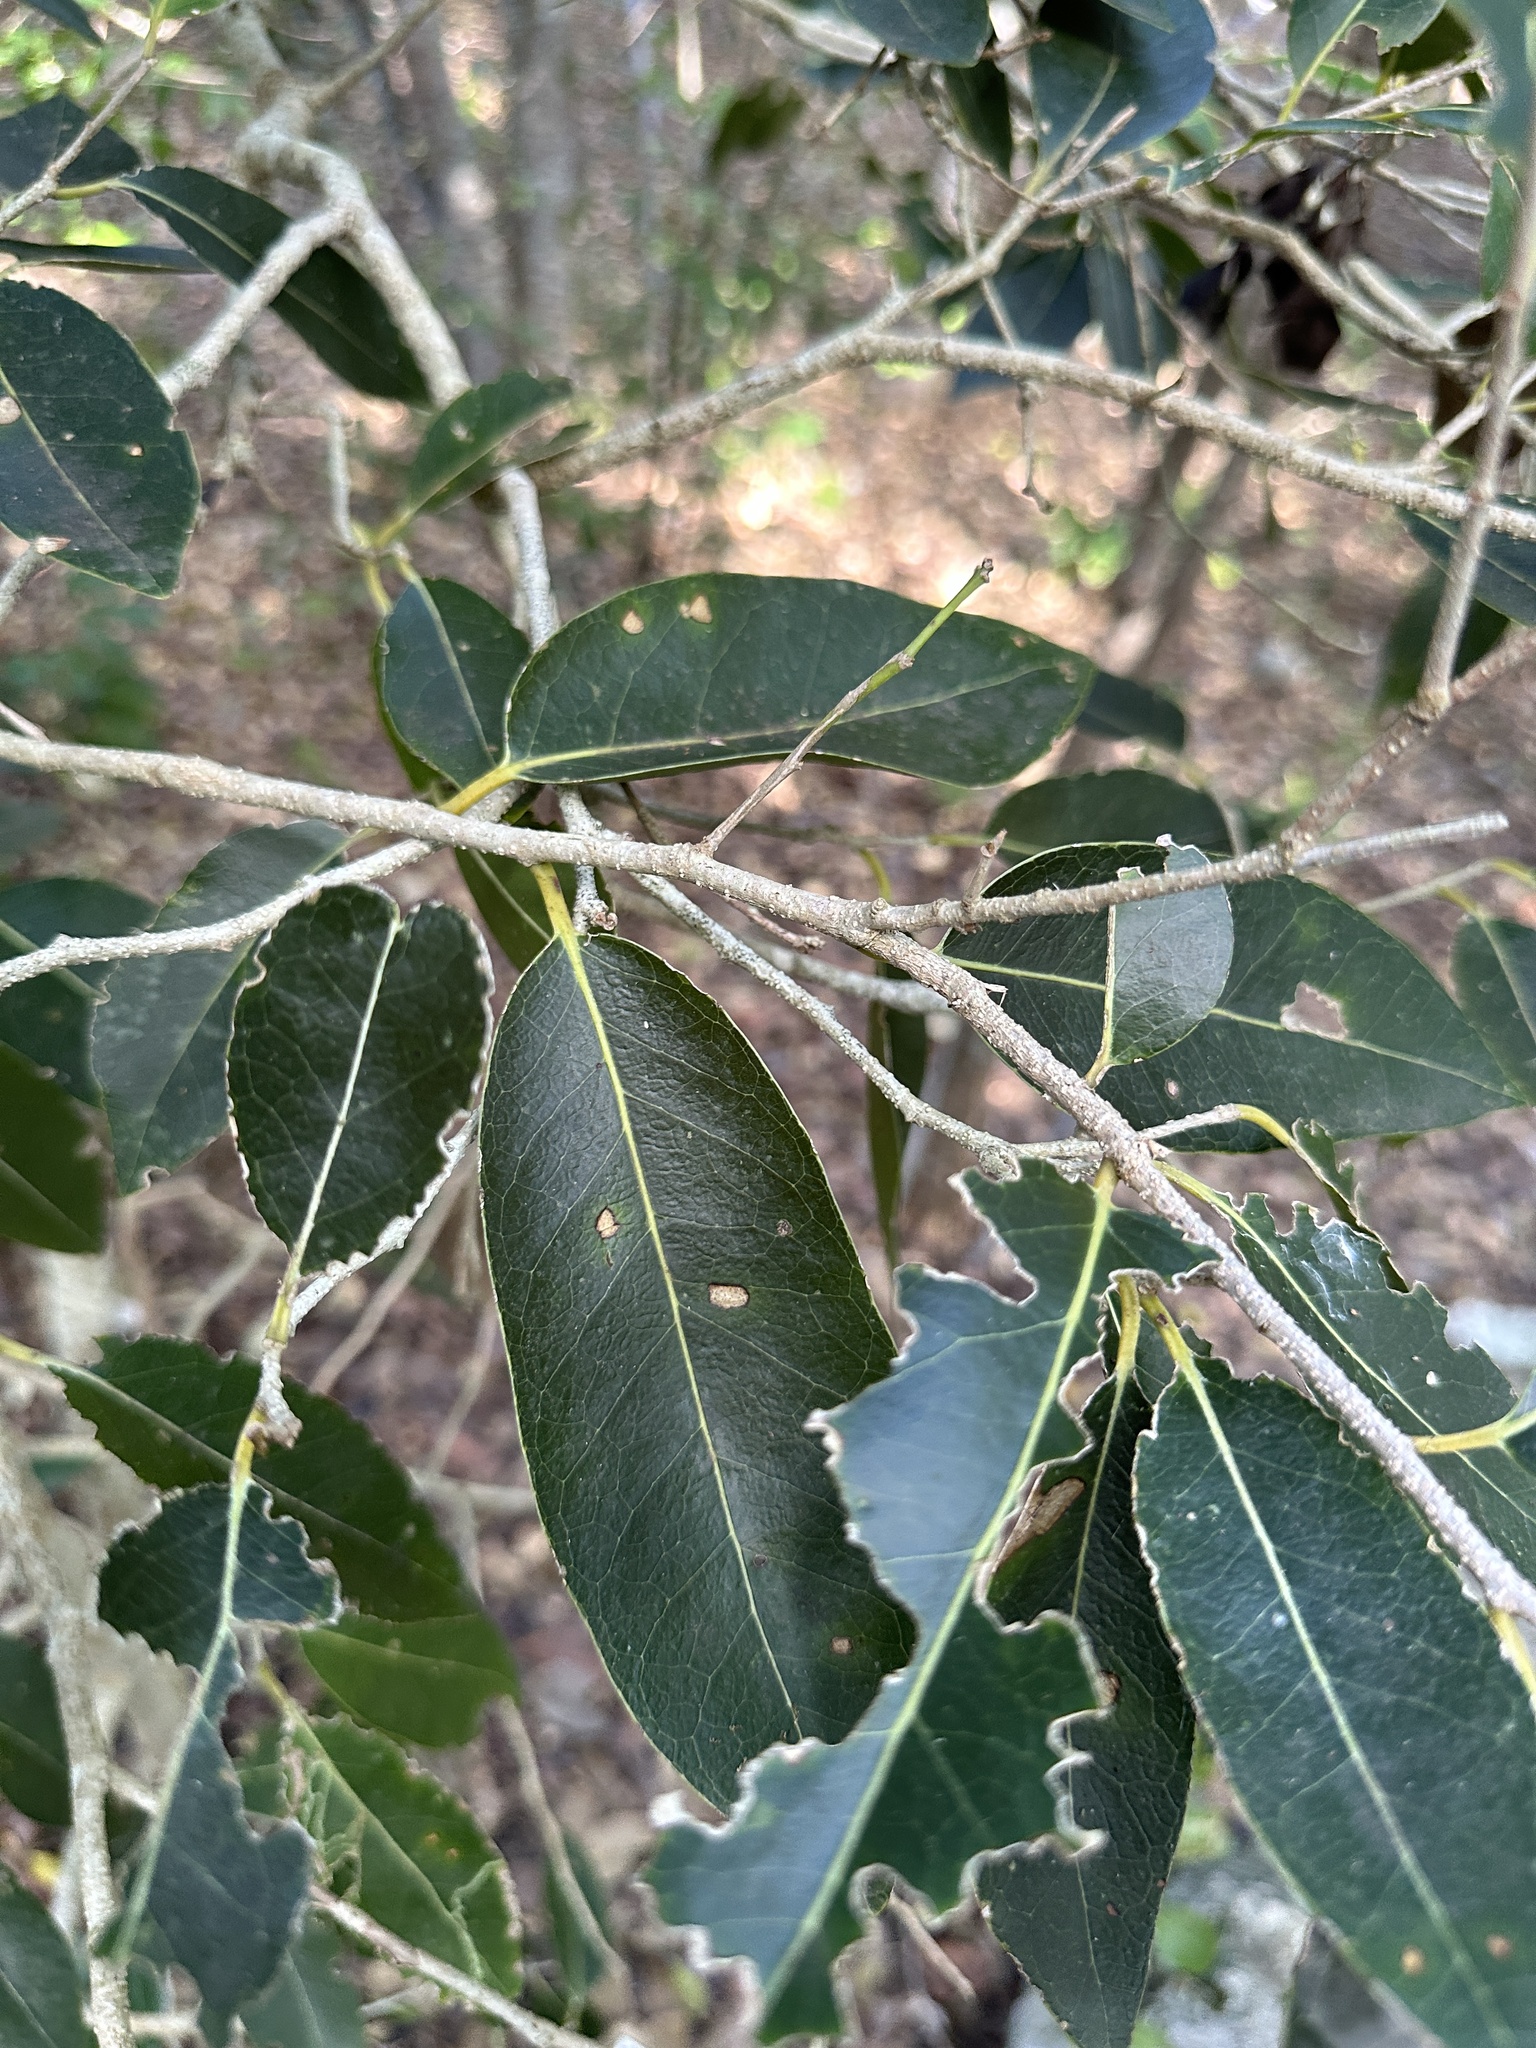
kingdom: Plantae
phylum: Tracheophyta
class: Magnoliopsida
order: Malpighiales
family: Putranjivaceae
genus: Drypetes
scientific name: Drypetes diversifolia
